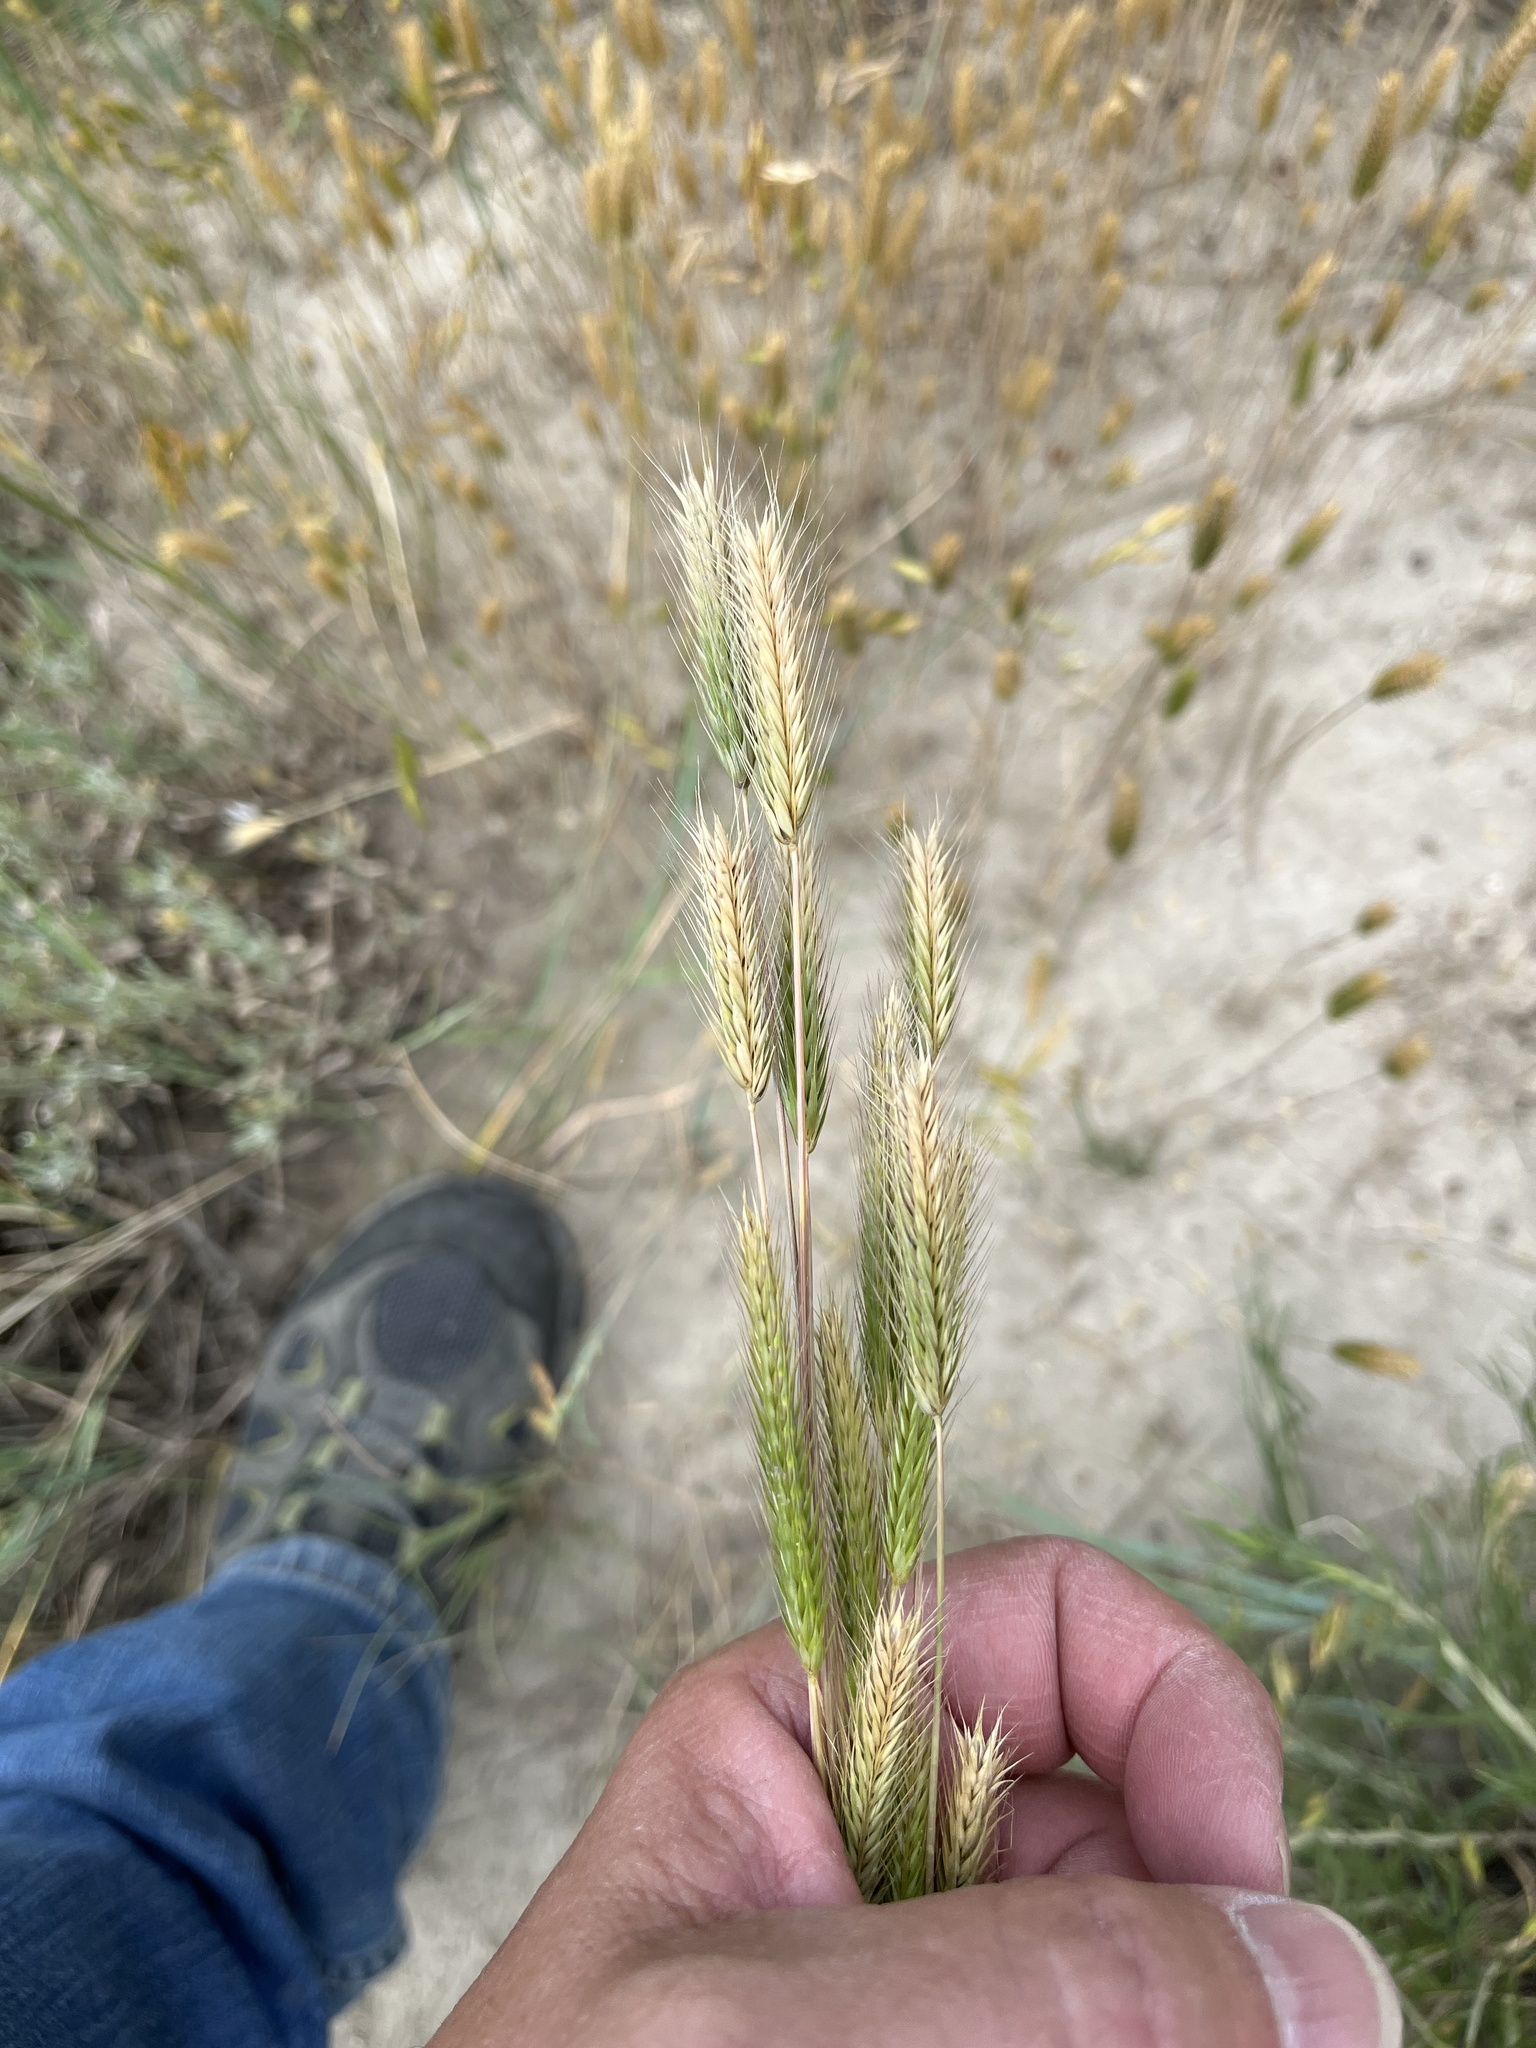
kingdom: Plantae
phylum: Tracheophyta
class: Liliopsida
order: Poales
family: Poaceae
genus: Hordeum
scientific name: Hordeum pusillum
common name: Little barley
